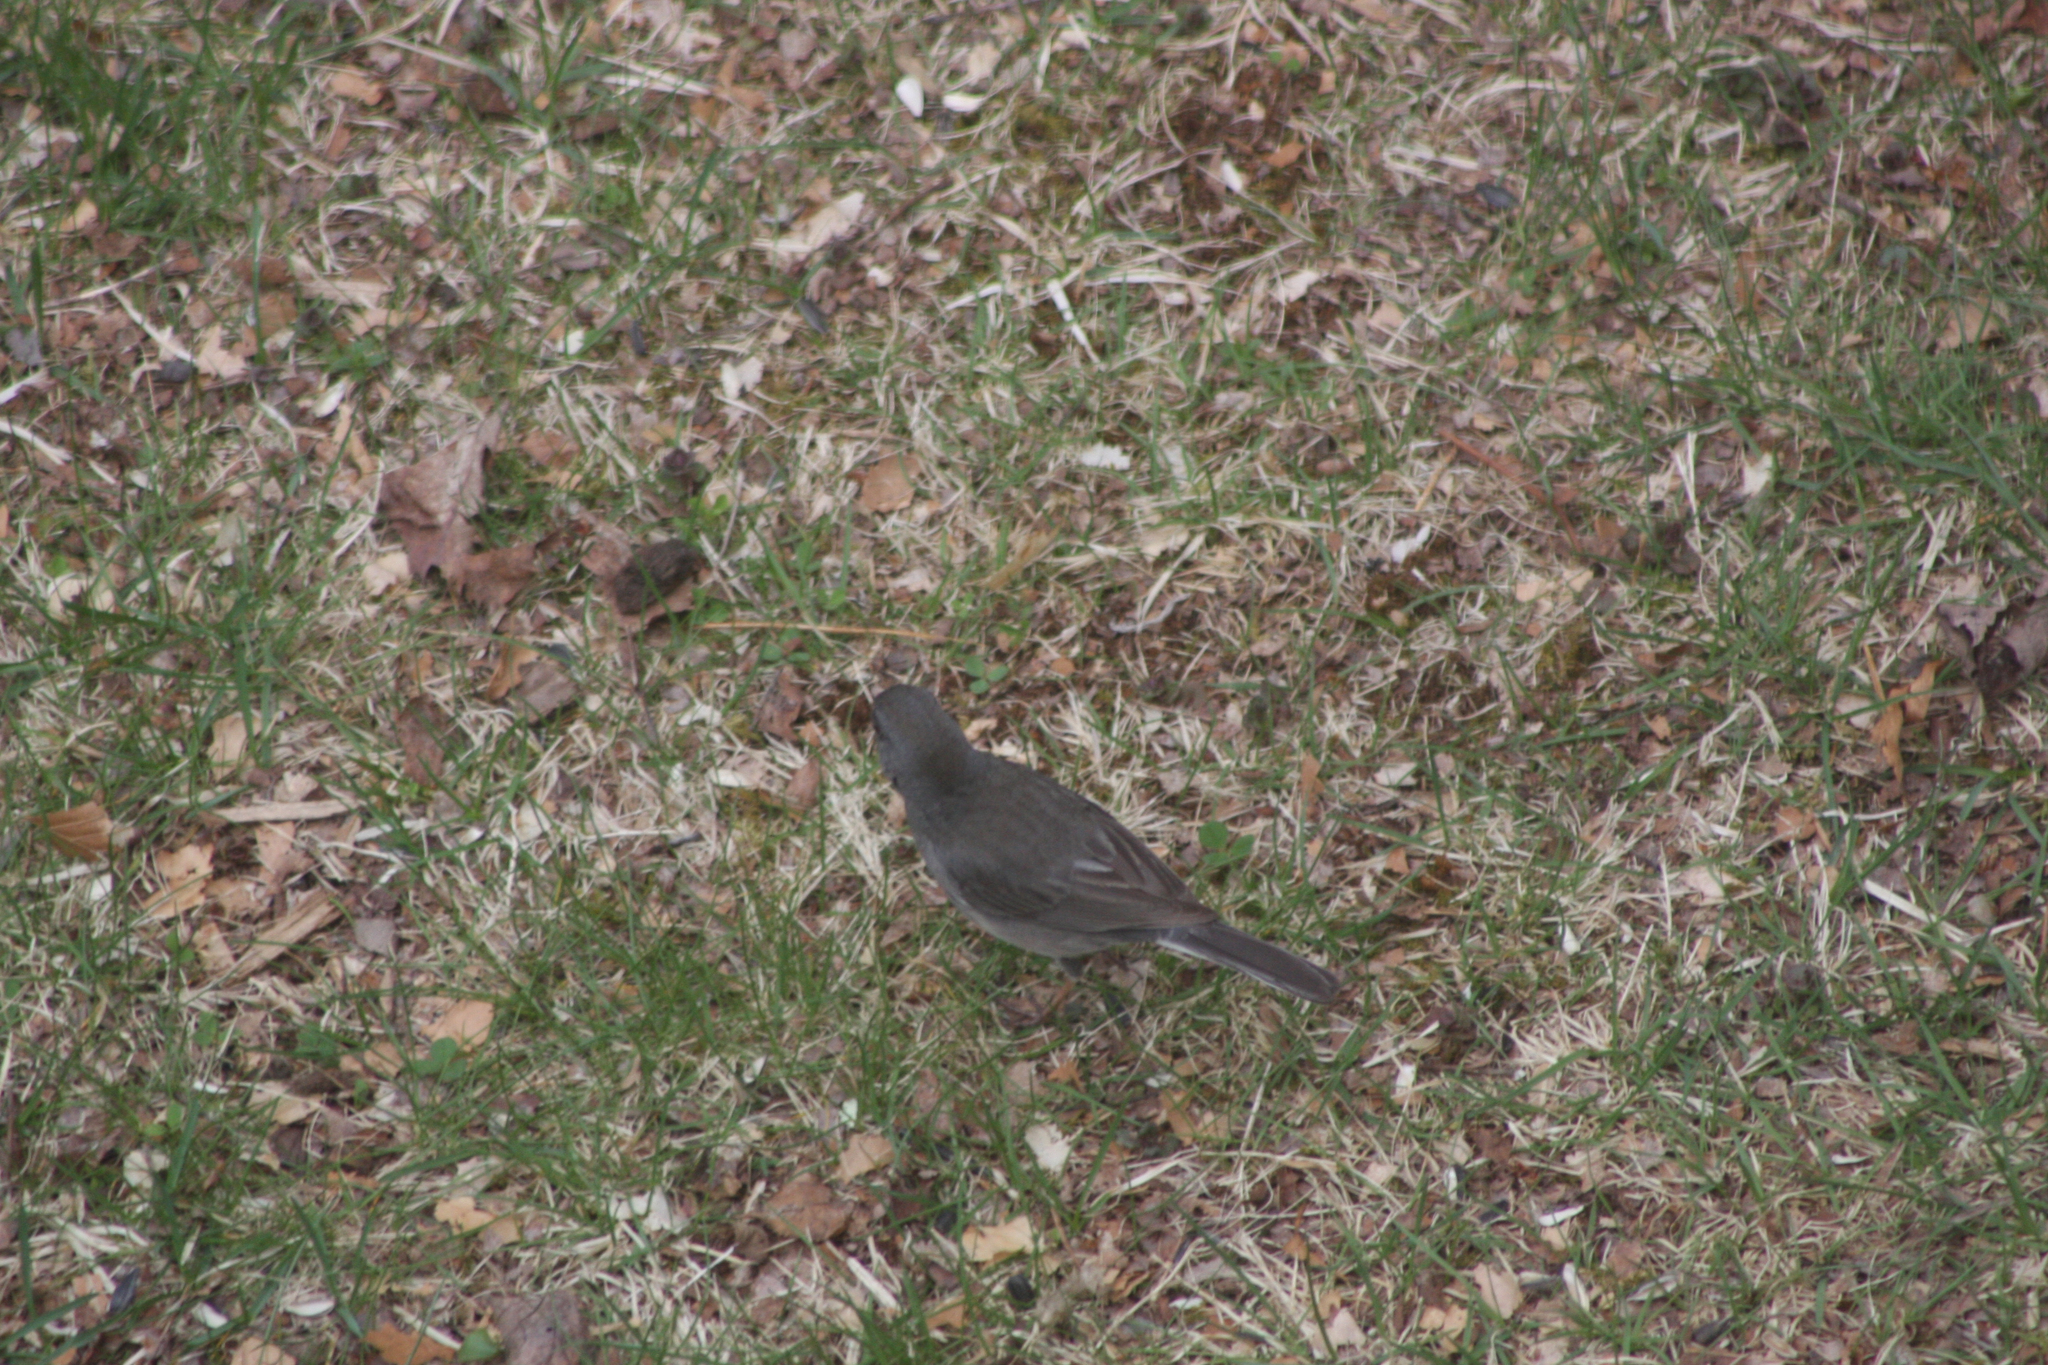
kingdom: Animalia
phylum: Chordata
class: Aves
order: Passeriformes
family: Passerellidae
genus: Junco
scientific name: Junco hyemalis
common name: Dark-eyed junco
